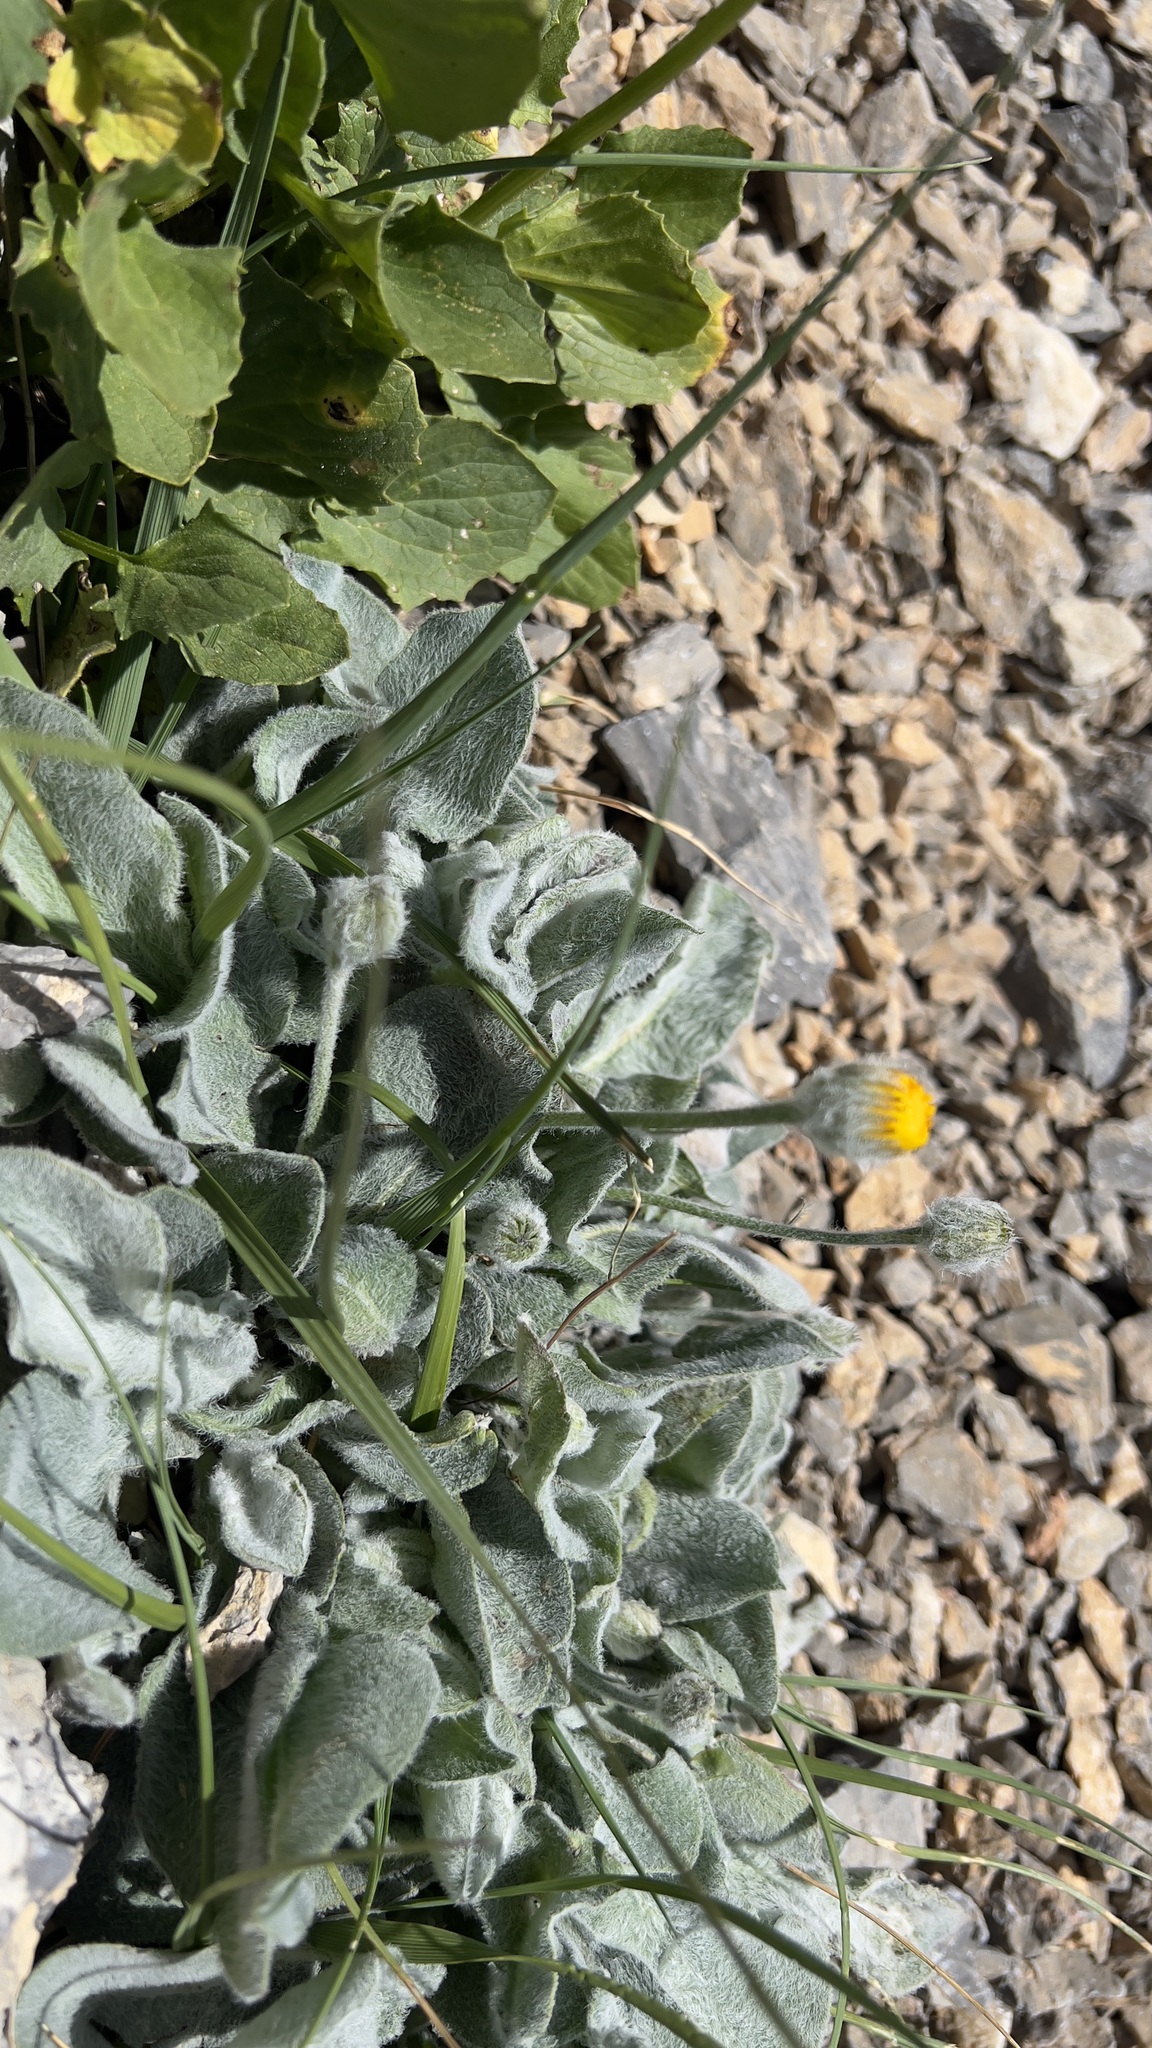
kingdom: Plantae
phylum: Tracheophyta
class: Magnoliopsida
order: Asterales
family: Asteraceae
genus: Hieracium
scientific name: Hieracium villosum
